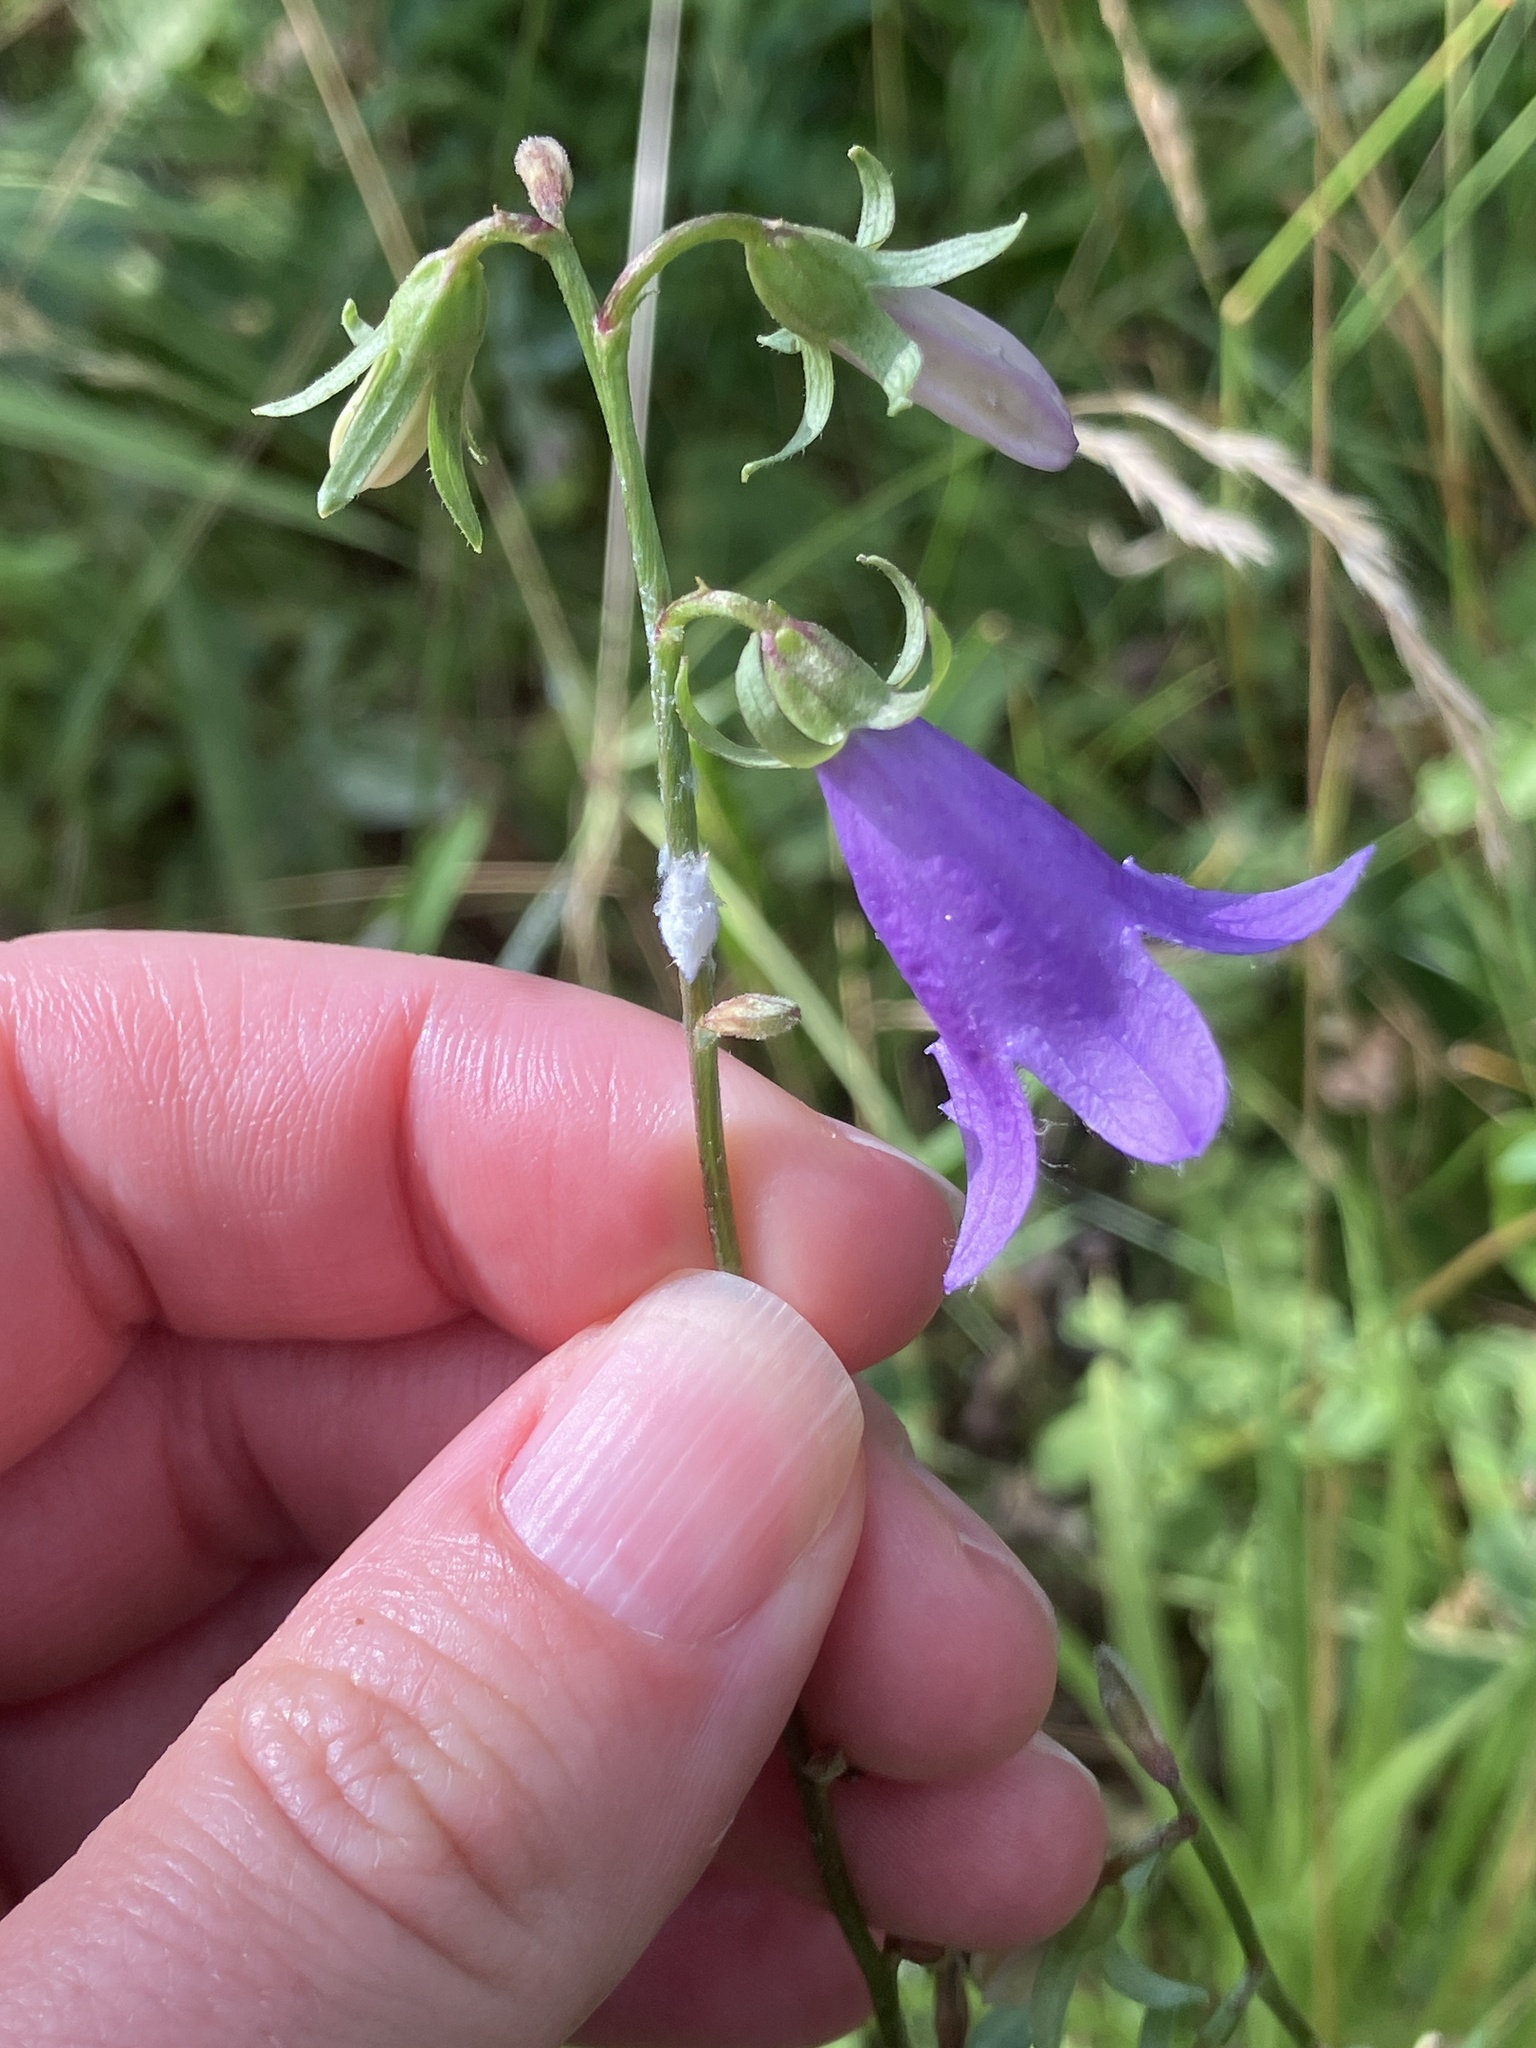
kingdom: Plantae
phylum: Tracheophyta
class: Magnoliopsida
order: Asterales
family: Campanulaceae
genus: Campanula
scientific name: Campanula rapunculoides
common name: Creeping bellflower
